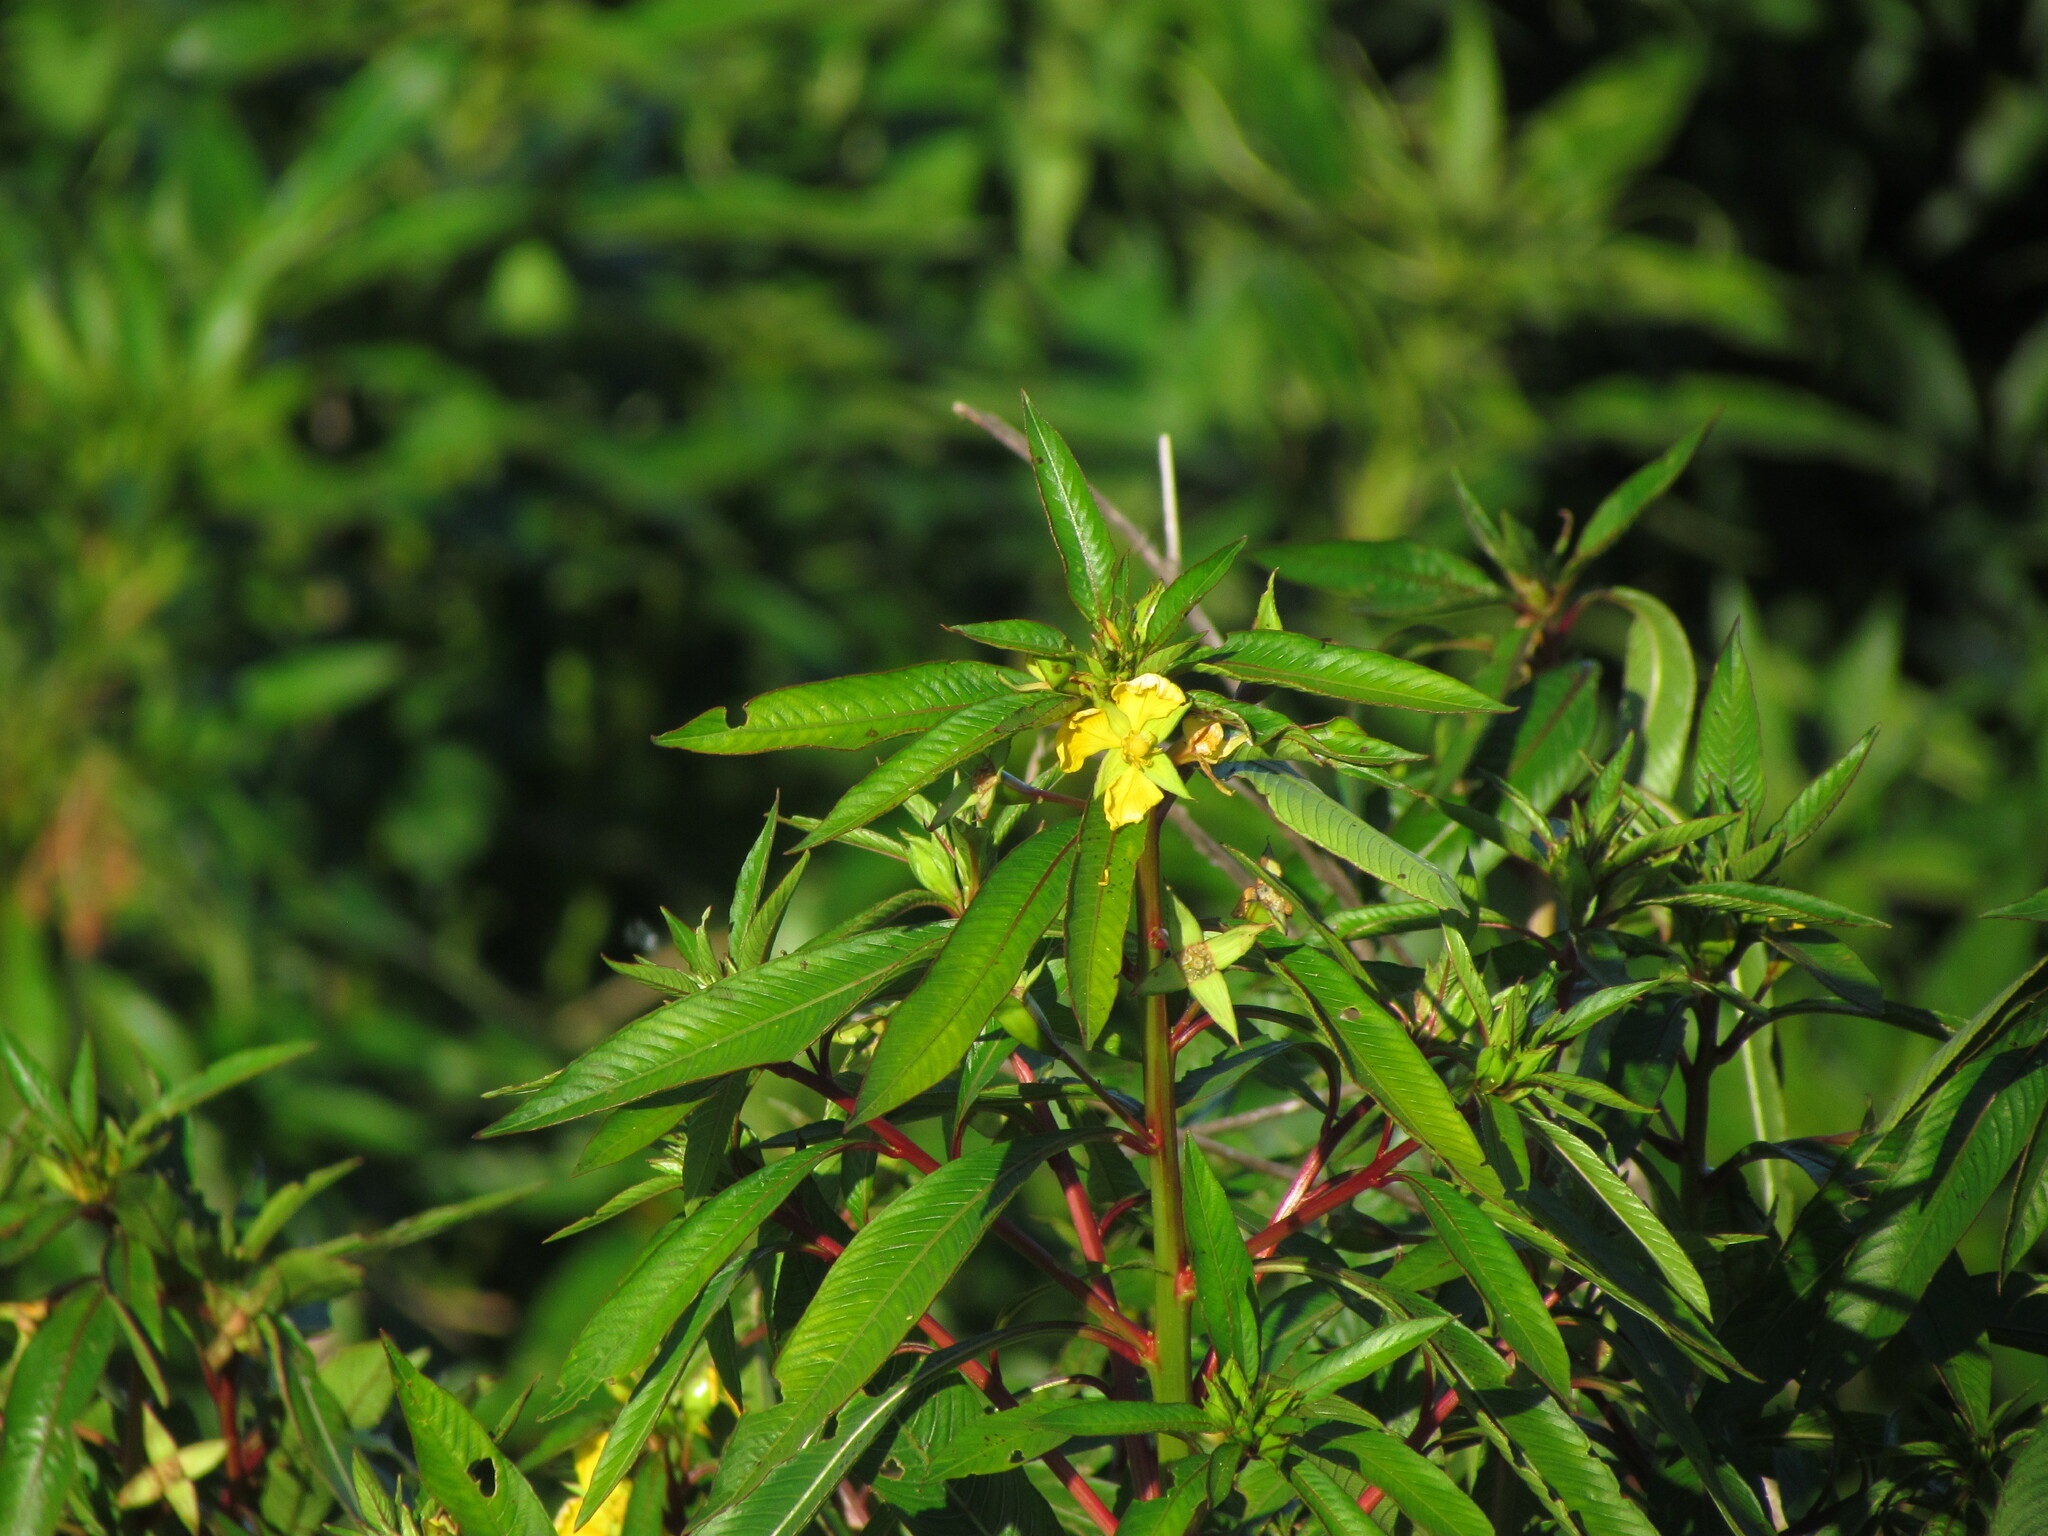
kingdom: Plantae
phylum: Tracheophyta
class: Magnoliopsida
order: Myrtales
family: Onagraceae
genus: Ludwigia
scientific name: Ludwigia elegans
